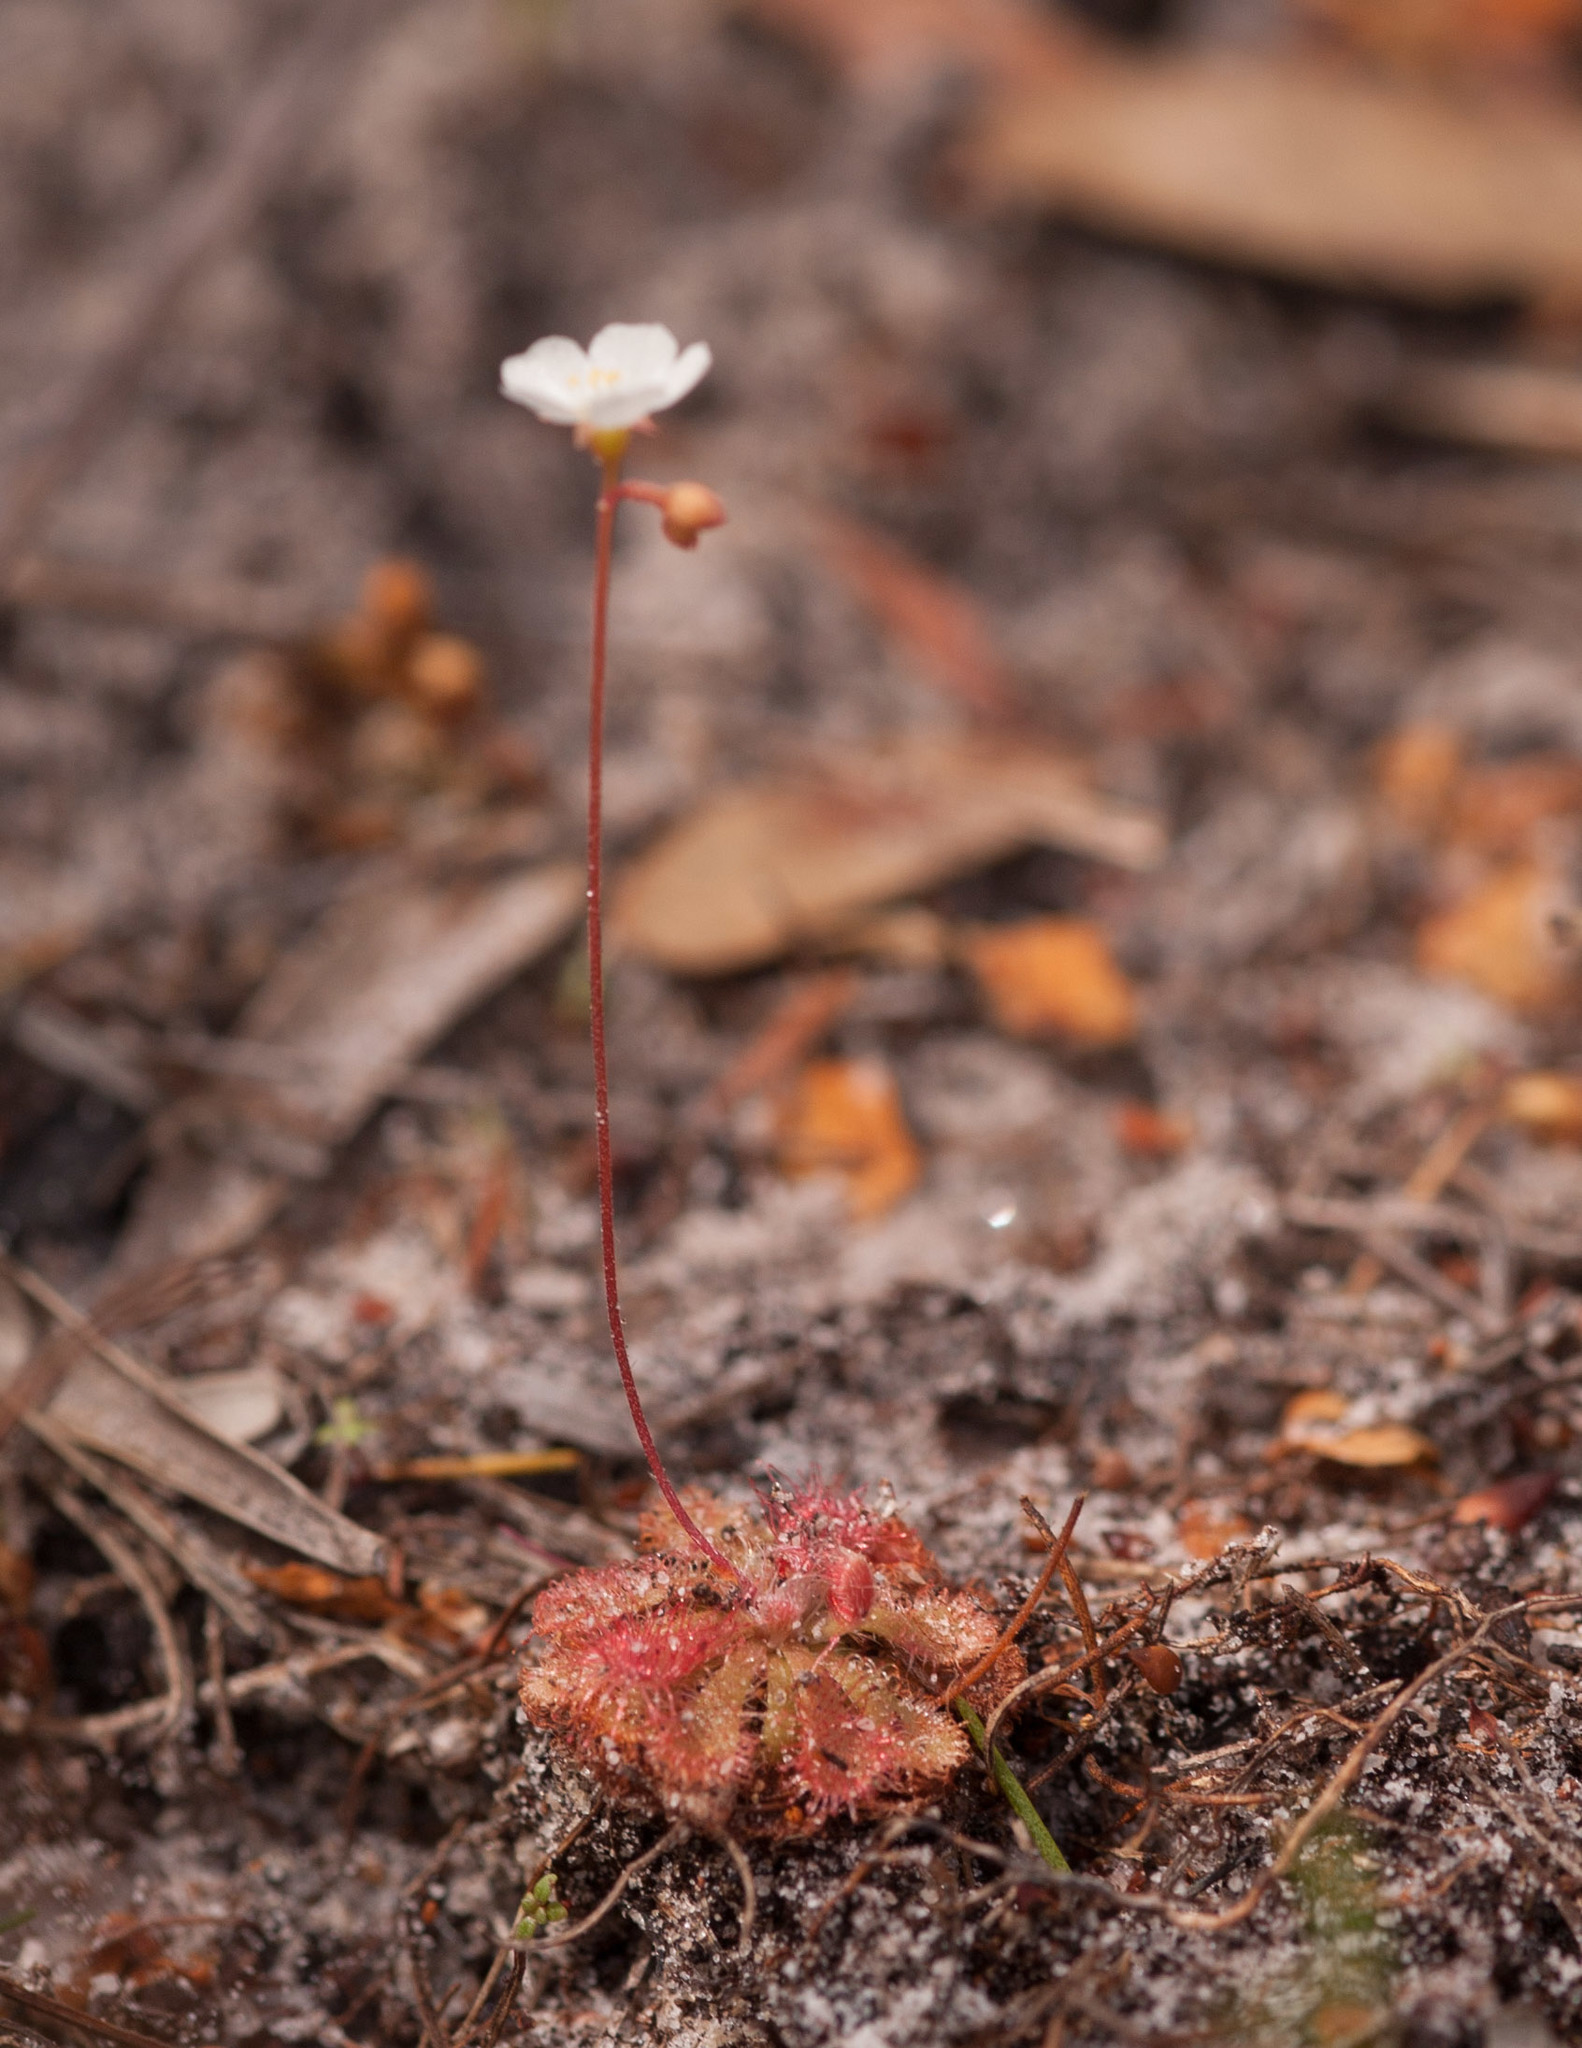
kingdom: Plantae
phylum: Tracheophyta
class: Magnoliopsida
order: Caryophyllales
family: Droseraceae
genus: Drosera
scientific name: Drosera spatulata
